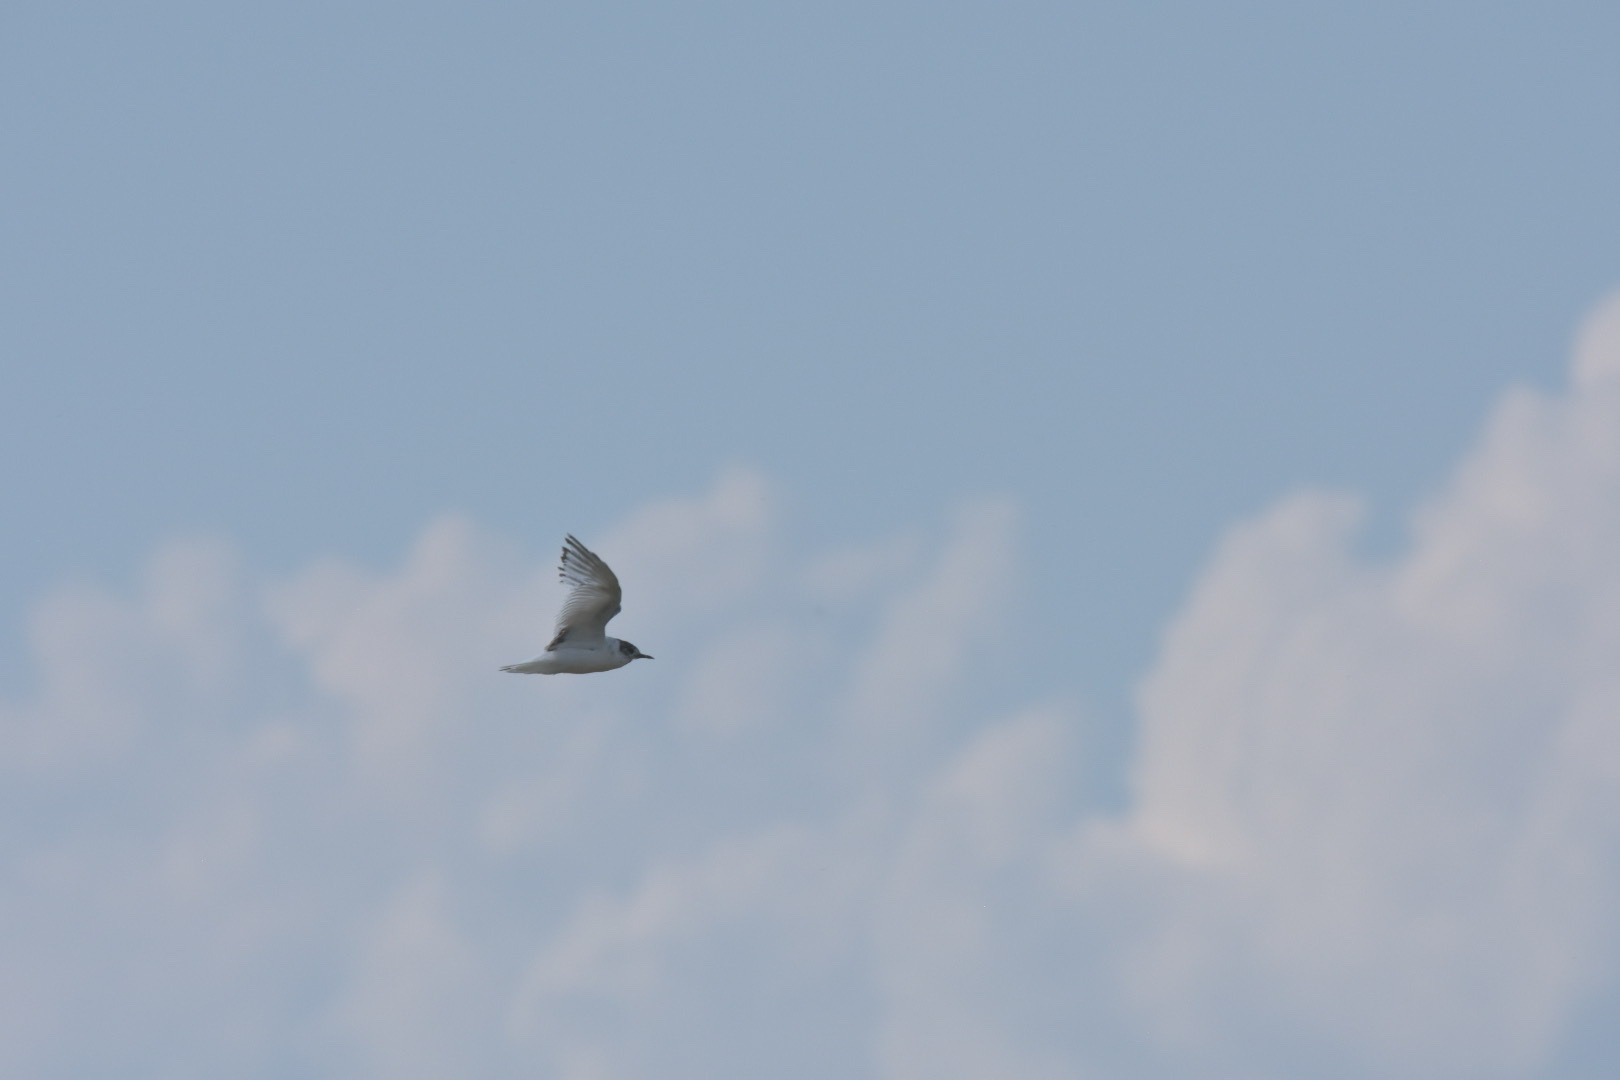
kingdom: Animalia
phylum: Chordata
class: Aves
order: Charadriiformes
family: Laridae
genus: Hydrocoloeus
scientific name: Hydrocoloeus minutus
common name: Little gull
